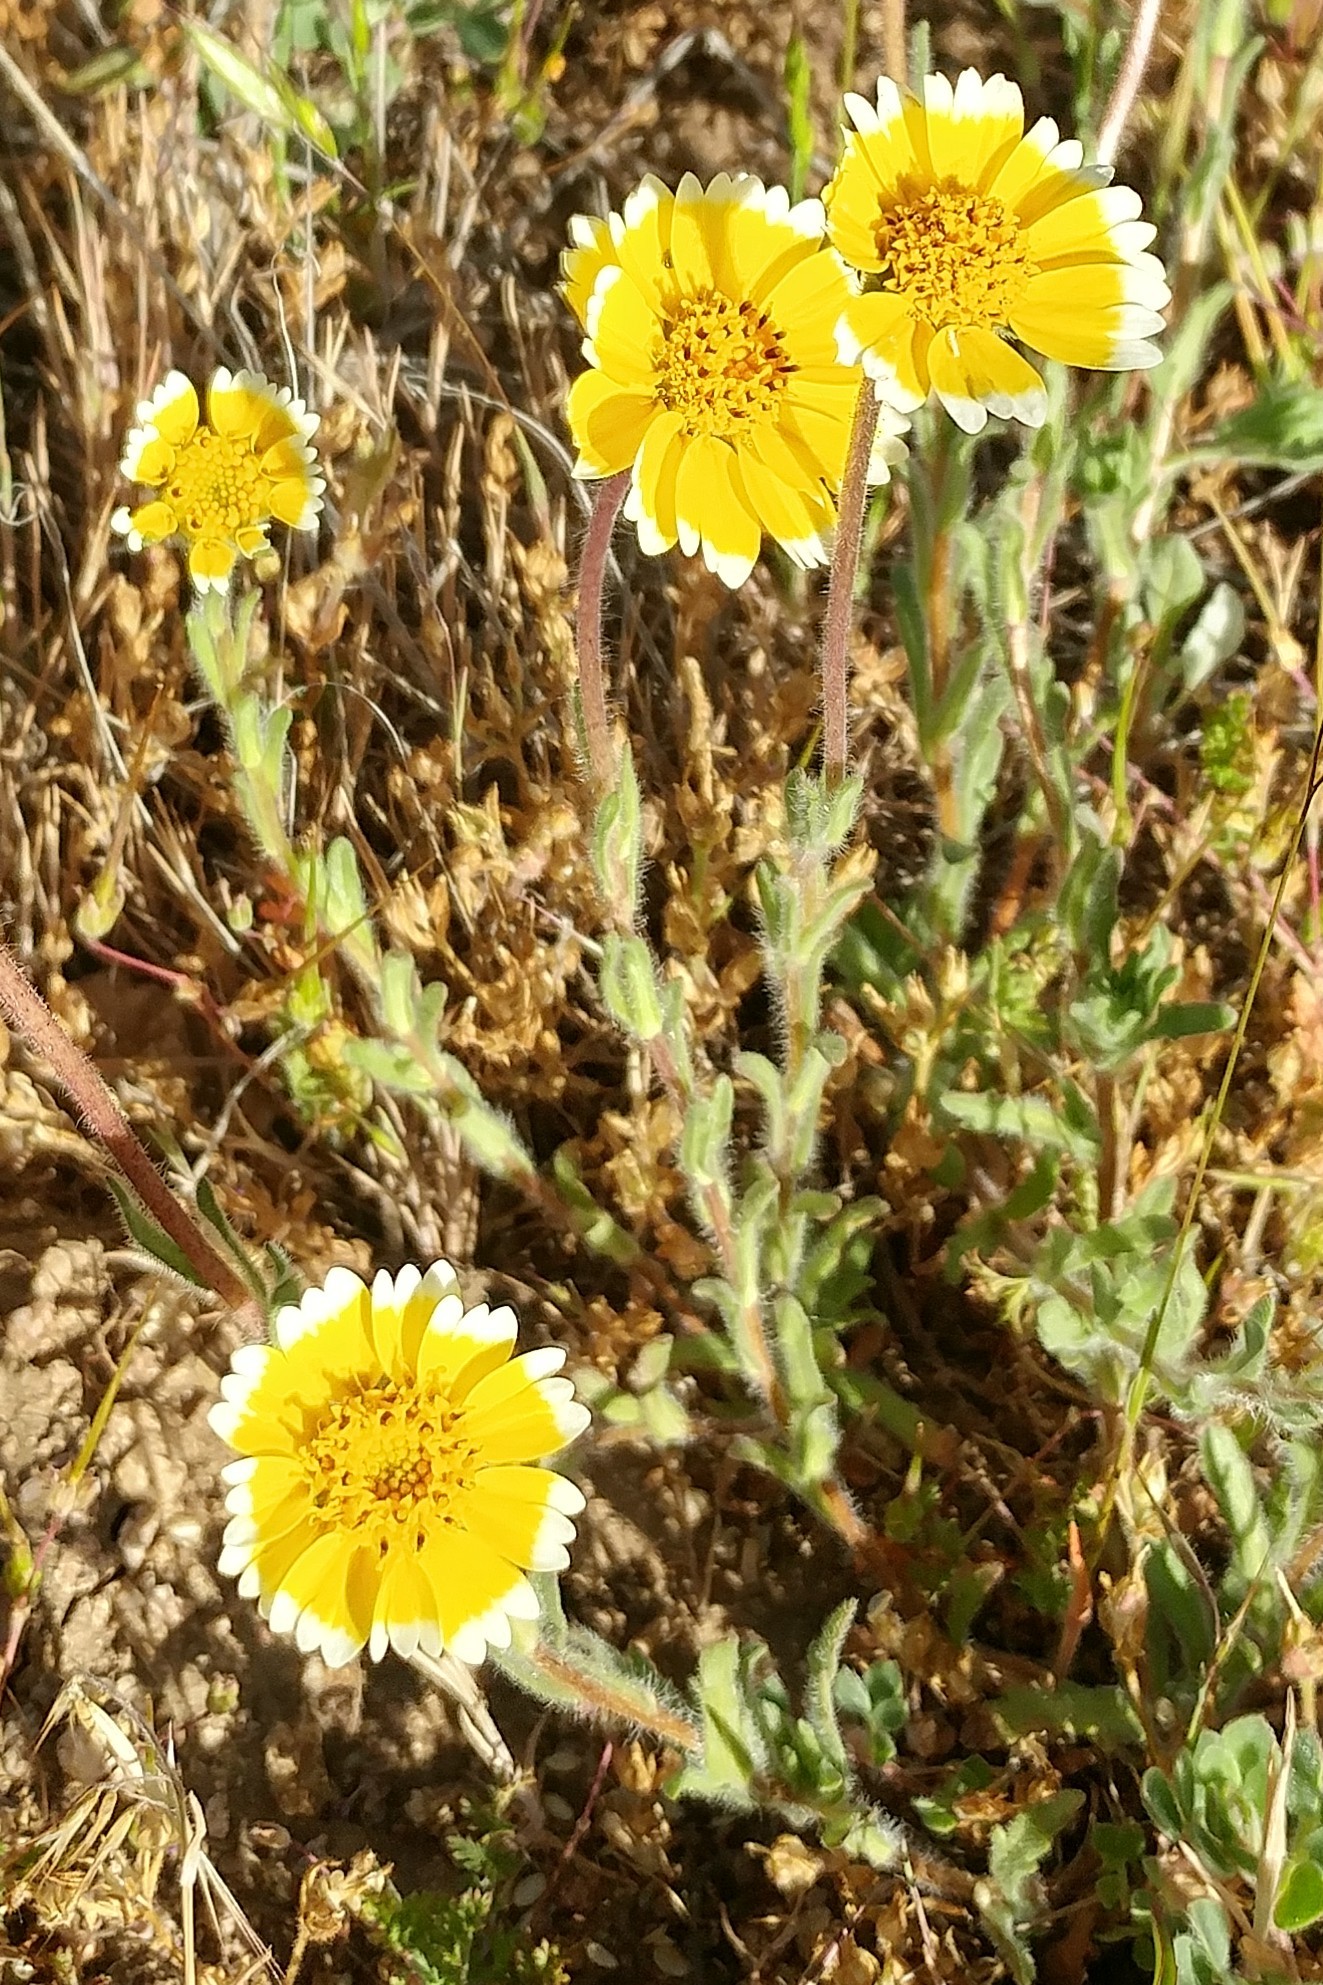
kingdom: Plantae
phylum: Tracheophyta
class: Magnoliopsida
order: Asterales
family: Asteraceae
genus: Layia
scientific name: Layia platyglossa
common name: Tidy-tips
